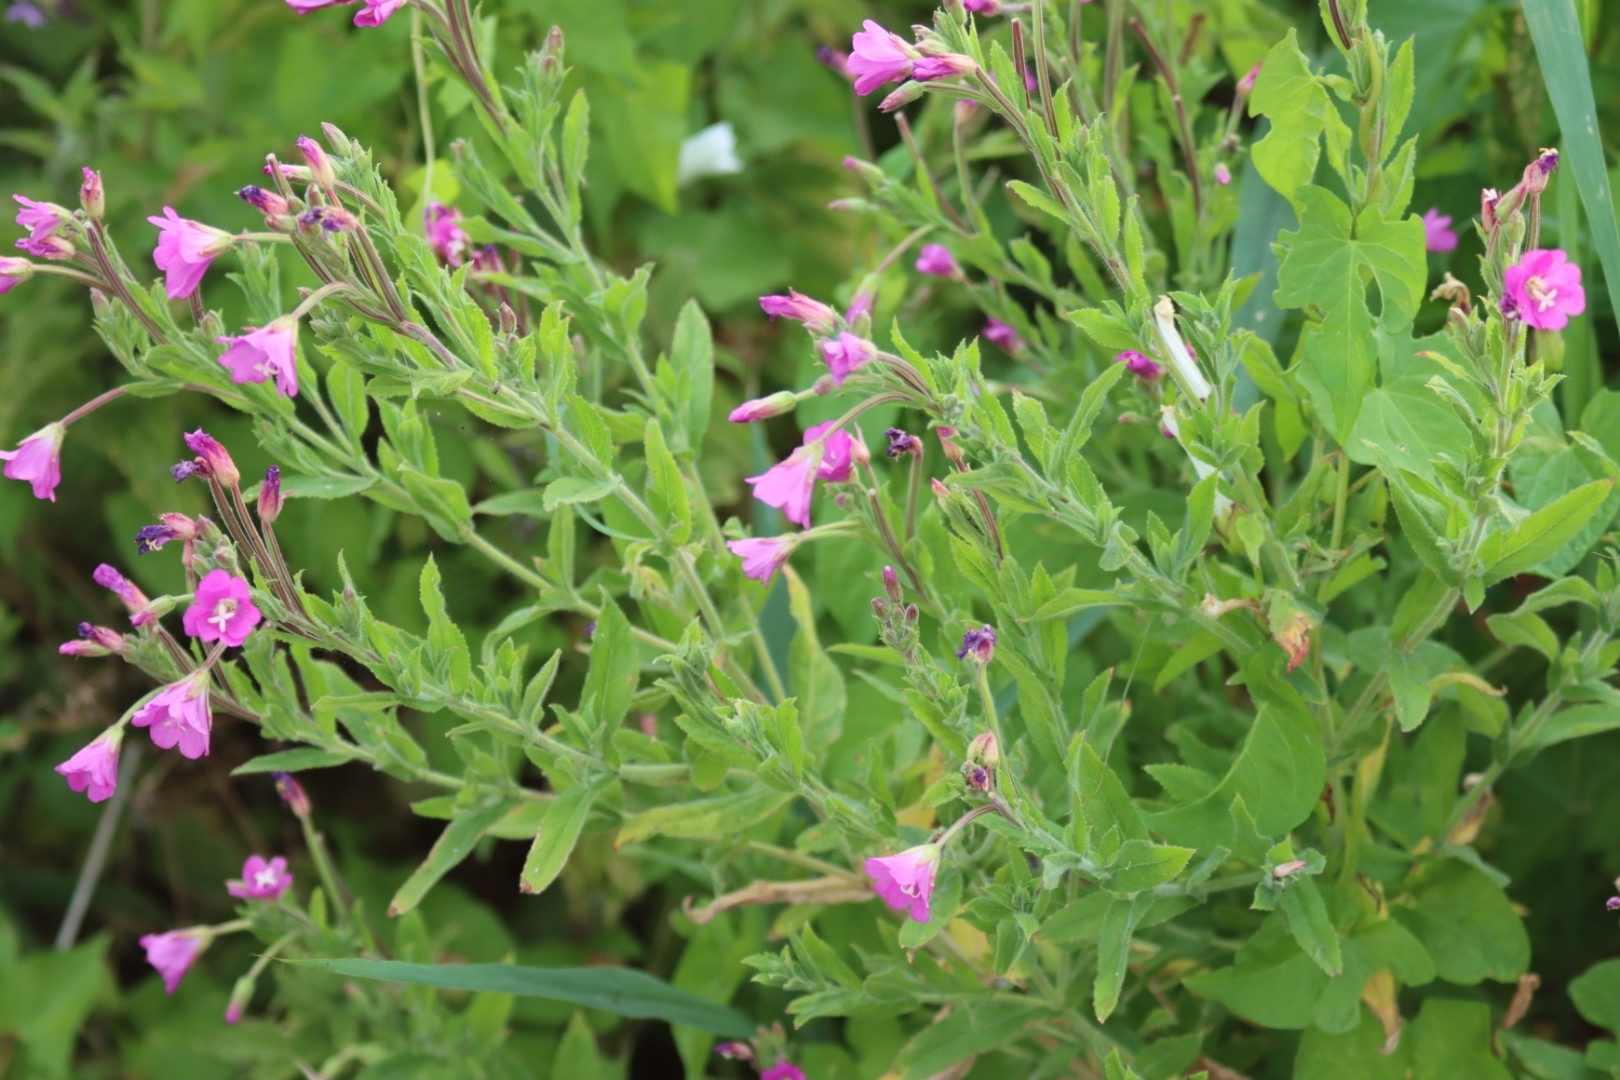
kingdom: Plantae
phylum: Tracheophyta
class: Magnoliopsida
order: Myrtales
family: Onagraceae
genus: Epilobium
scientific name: Epilobium hirsutum
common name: Great willowherb
